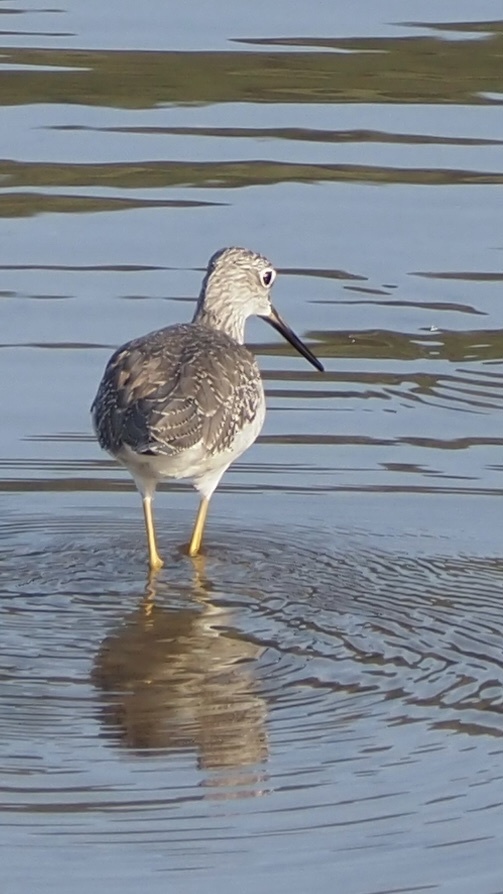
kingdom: Animalia
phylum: Chordata
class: Aves
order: Charadriiformes
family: Scolopacidae
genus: Tringa
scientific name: Tringa flavipes
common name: Lesser yellowlegs
